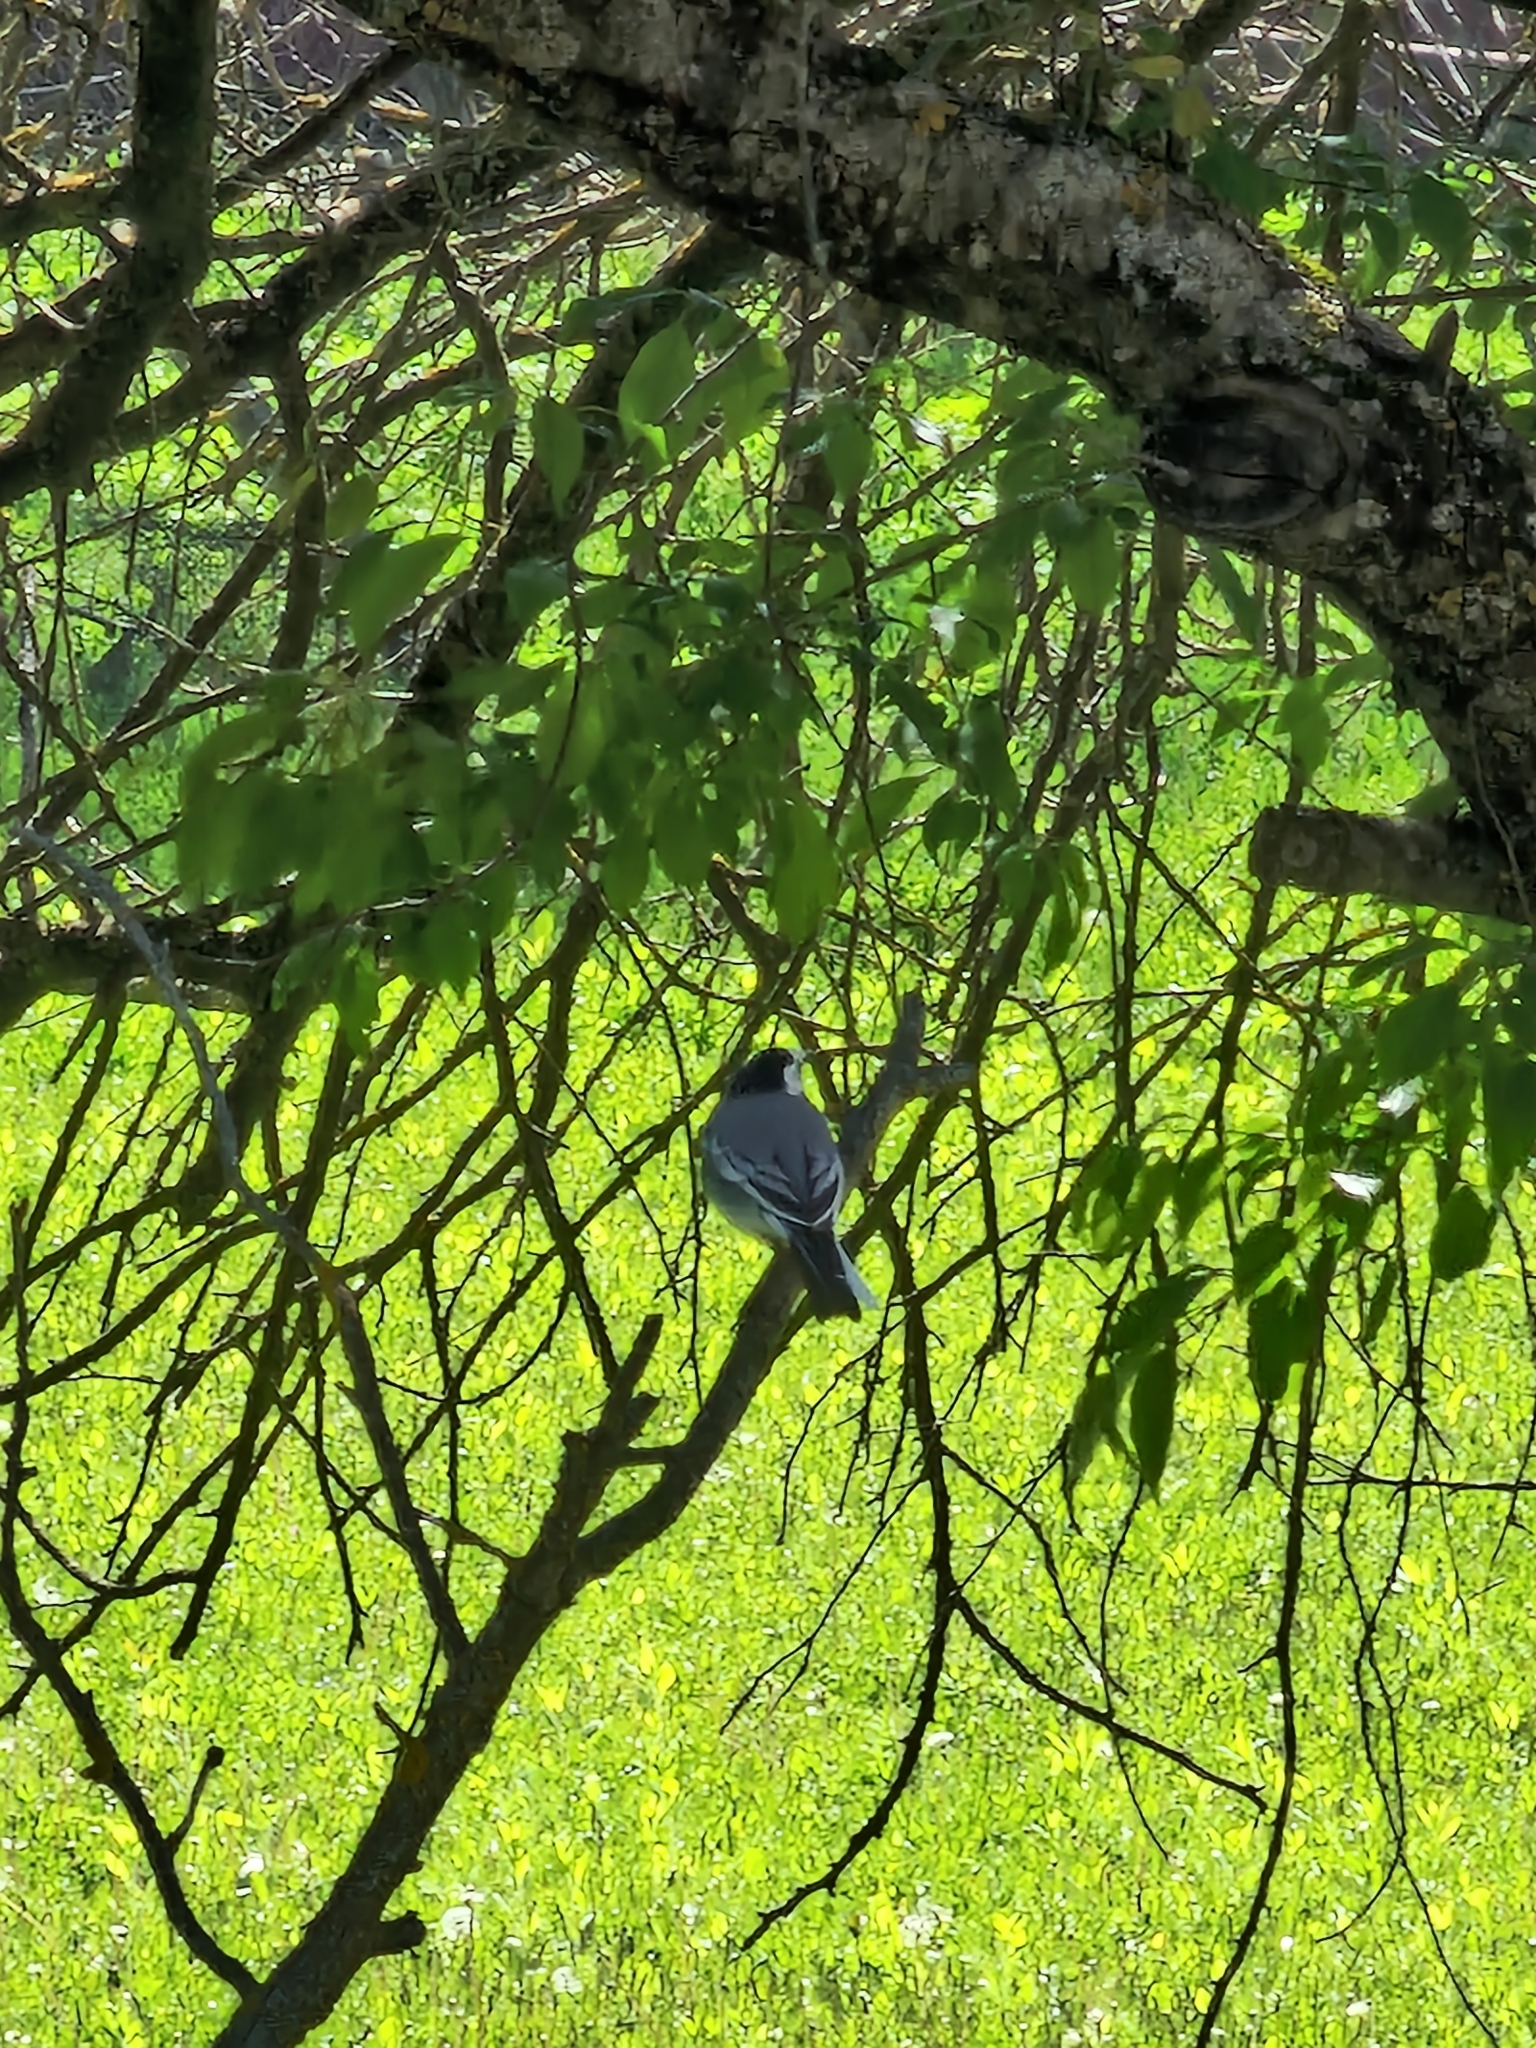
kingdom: Animalia
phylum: Chordata
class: Aves
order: Passeriformes
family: Motacillidae
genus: Motacilla
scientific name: Motacilla alba
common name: White wagtail
